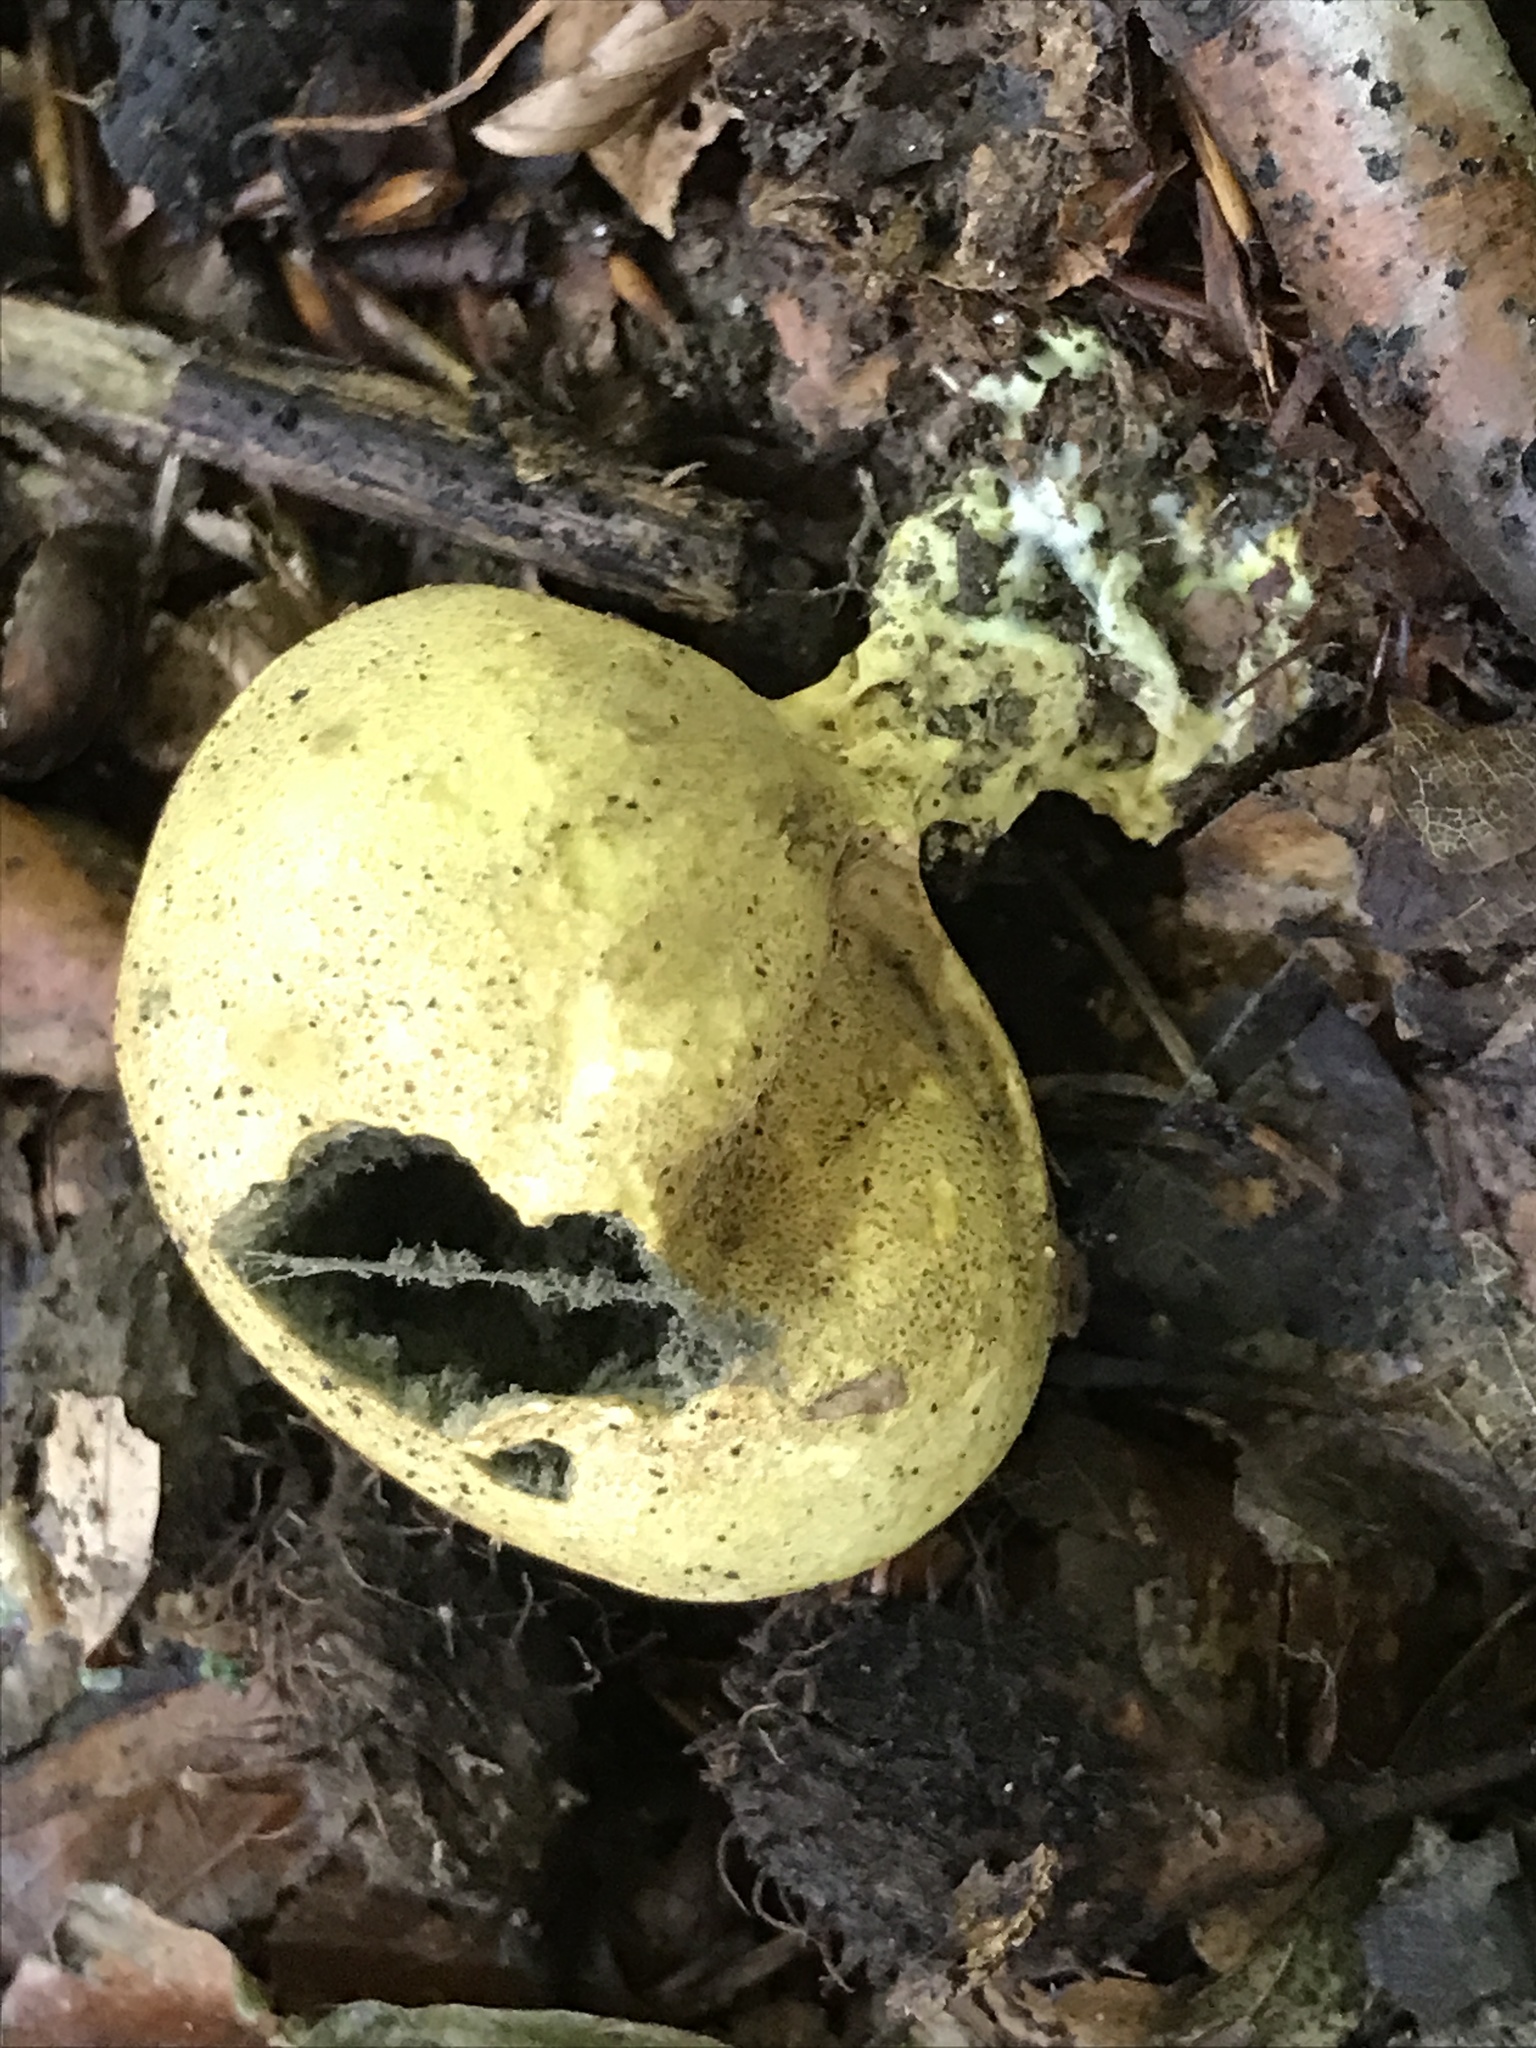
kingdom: Fungi
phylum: Basidiomycota
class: Agaricomycetes
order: Boletales
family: Sclerodermataceae
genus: Scleroderma
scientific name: Scleroderma citrinum
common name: Common earthball
